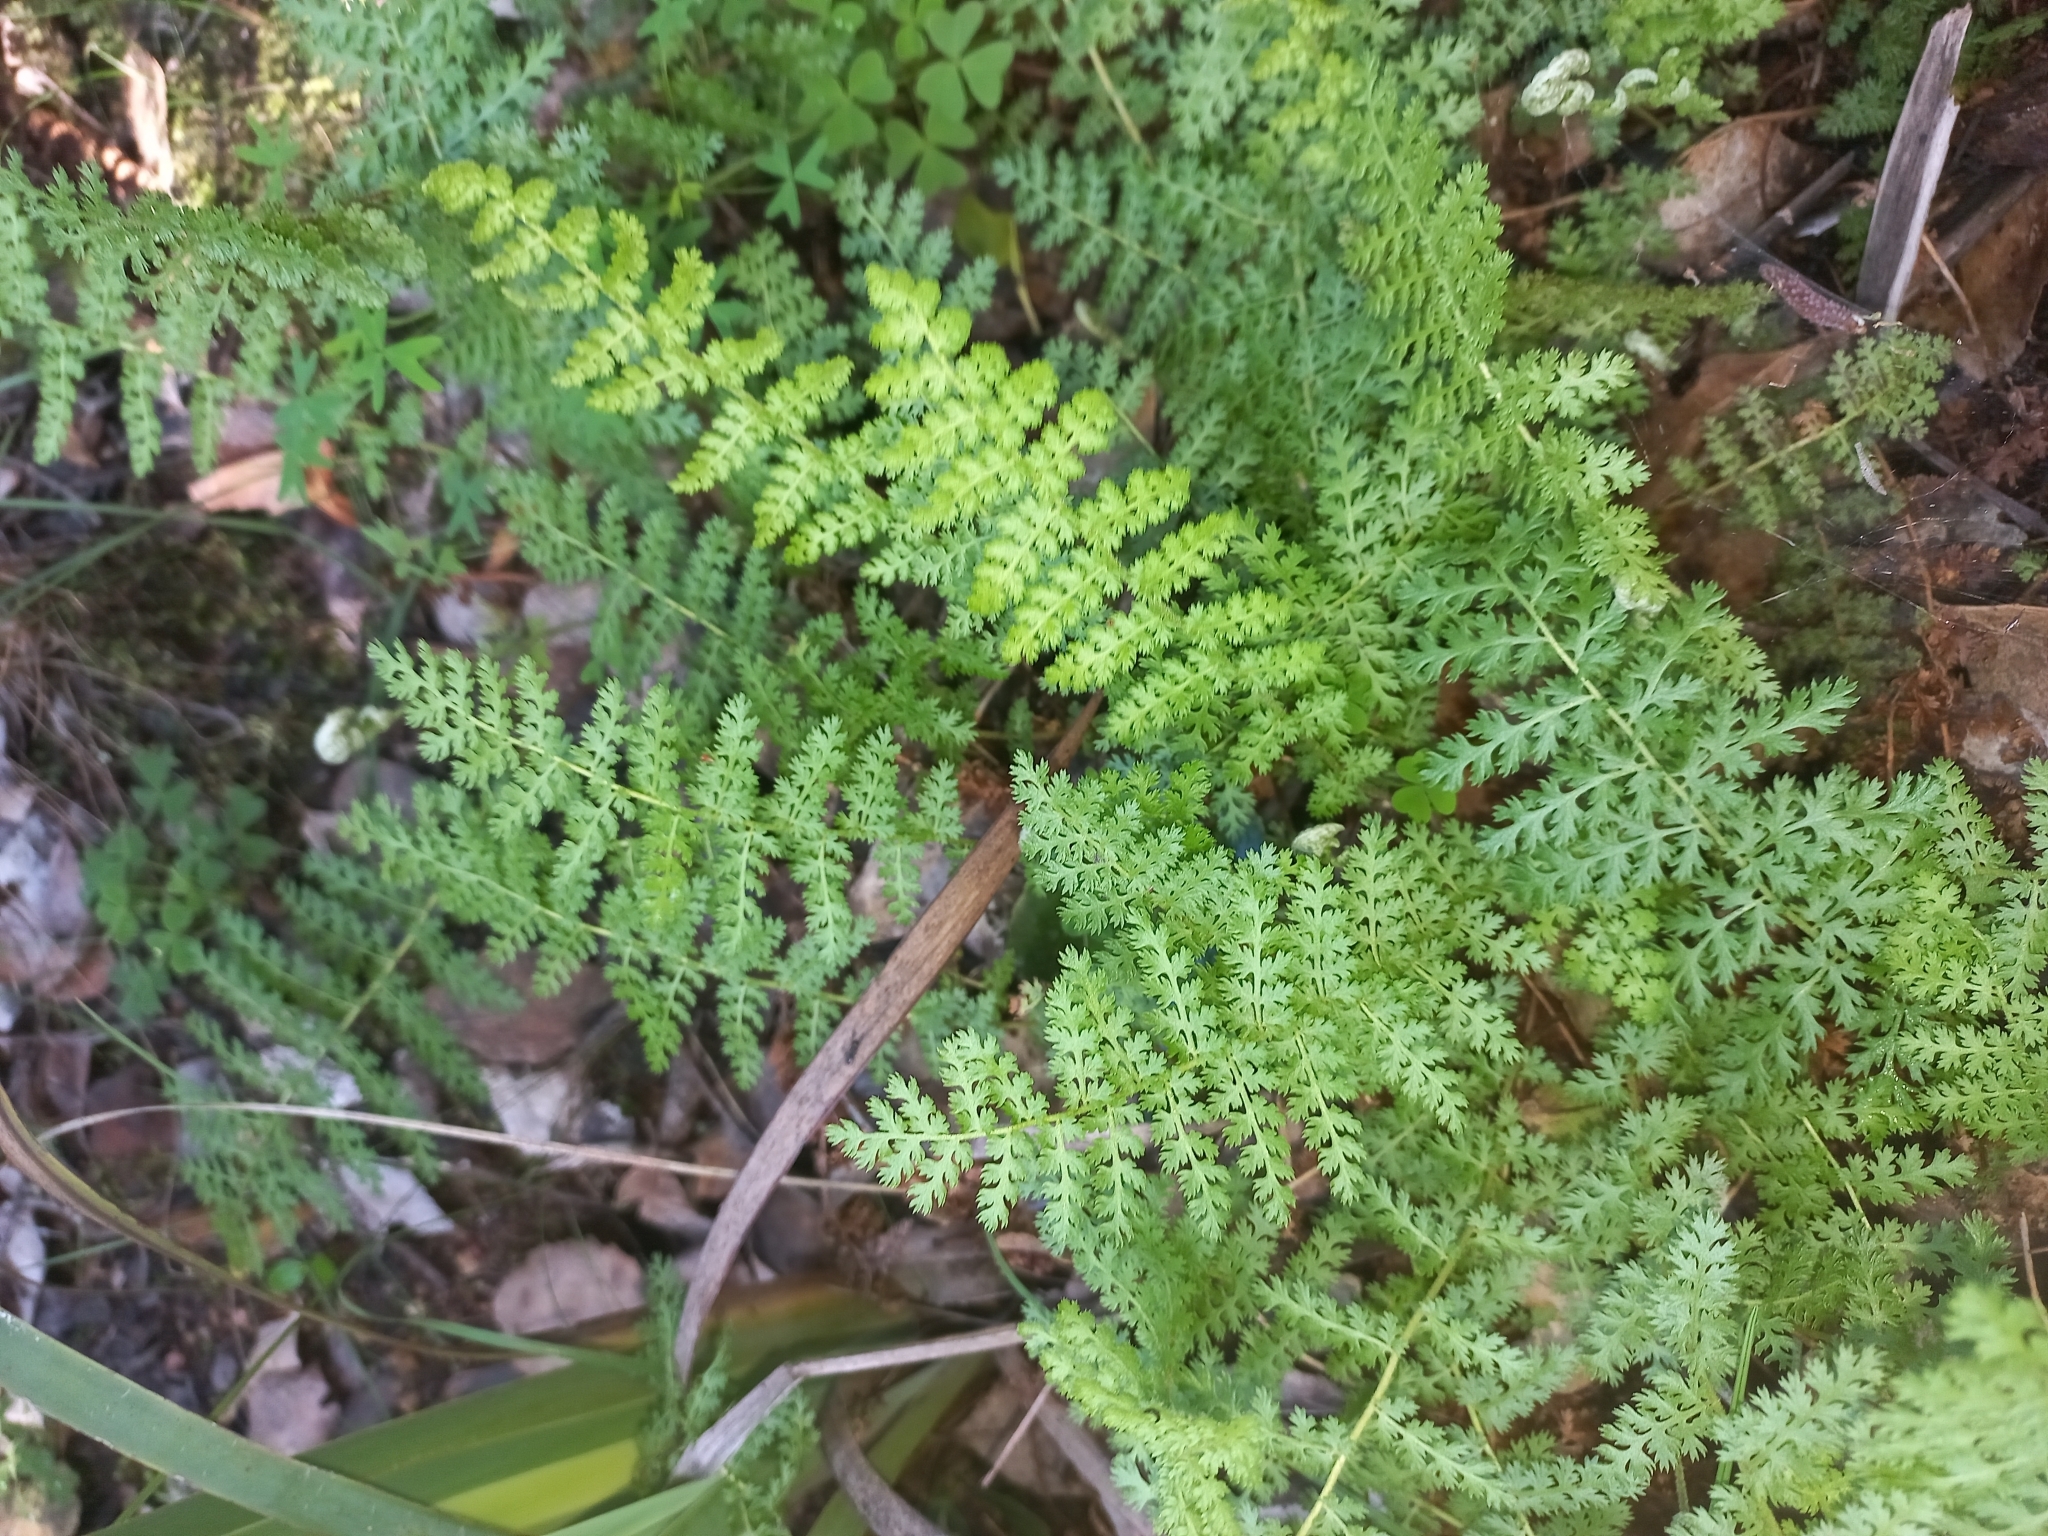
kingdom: Plantae
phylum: Tracheophyta
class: Polypodiopsida
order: Schizaeales
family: Anemiaceae
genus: Anemia
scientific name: Anemia caffrorum
